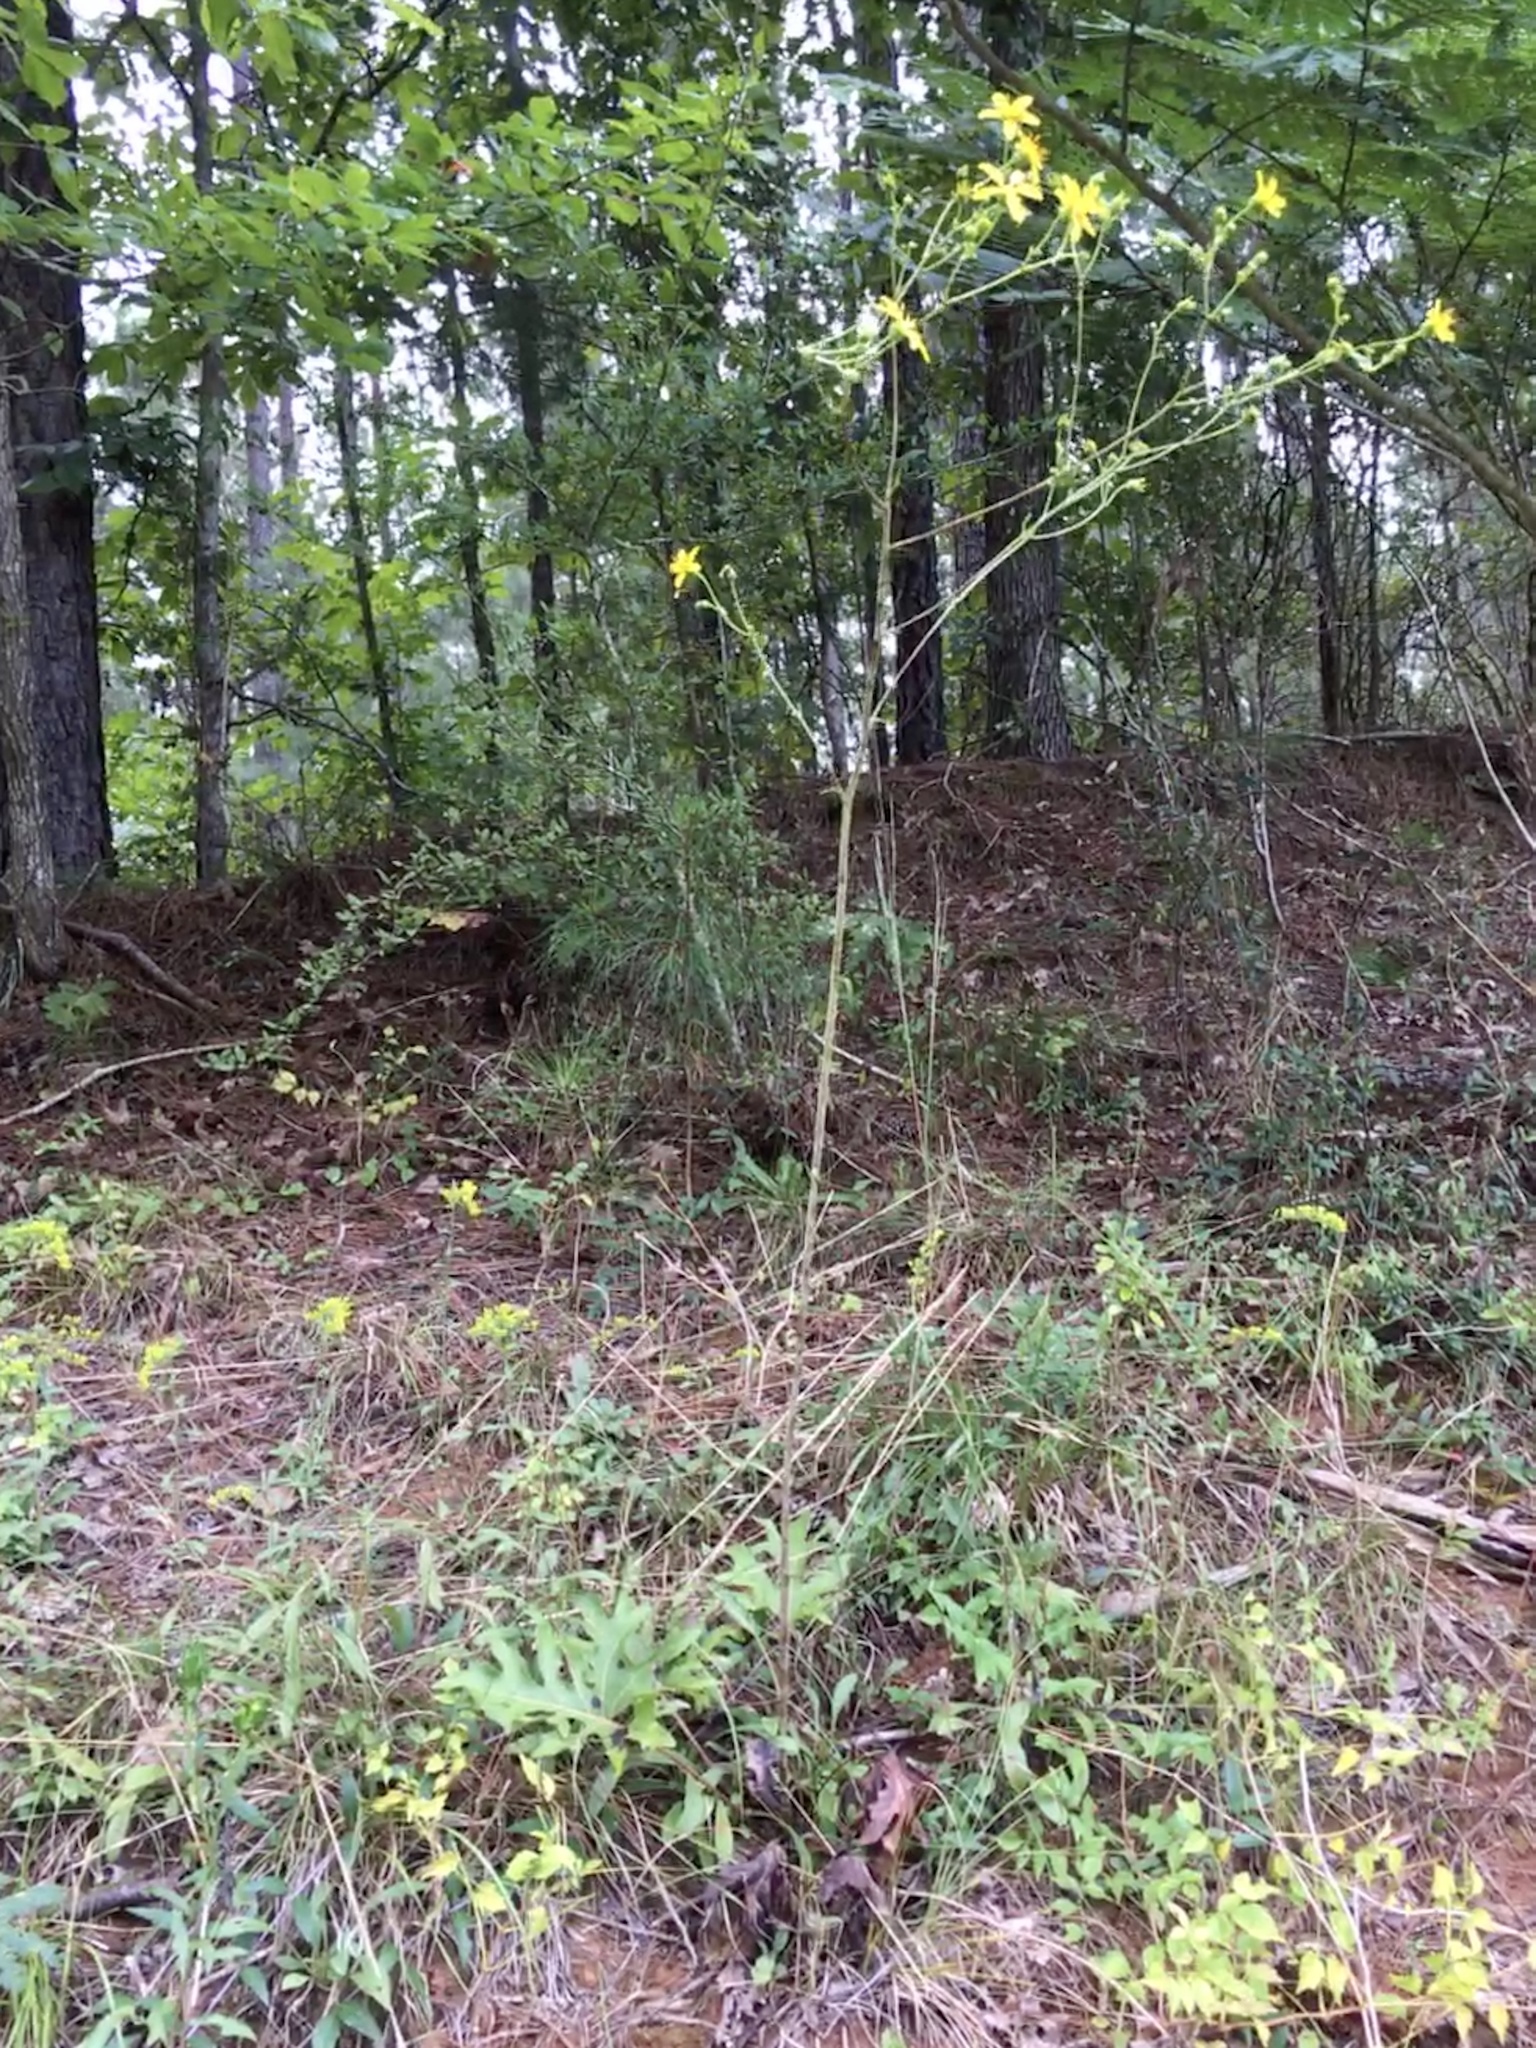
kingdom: Plantae
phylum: Tracheophyta
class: Magnoliopsida
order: Asterales
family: Asteraceae
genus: Silphium
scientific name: Silphium compositum
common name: Lesser basal-leaf rosinweed
